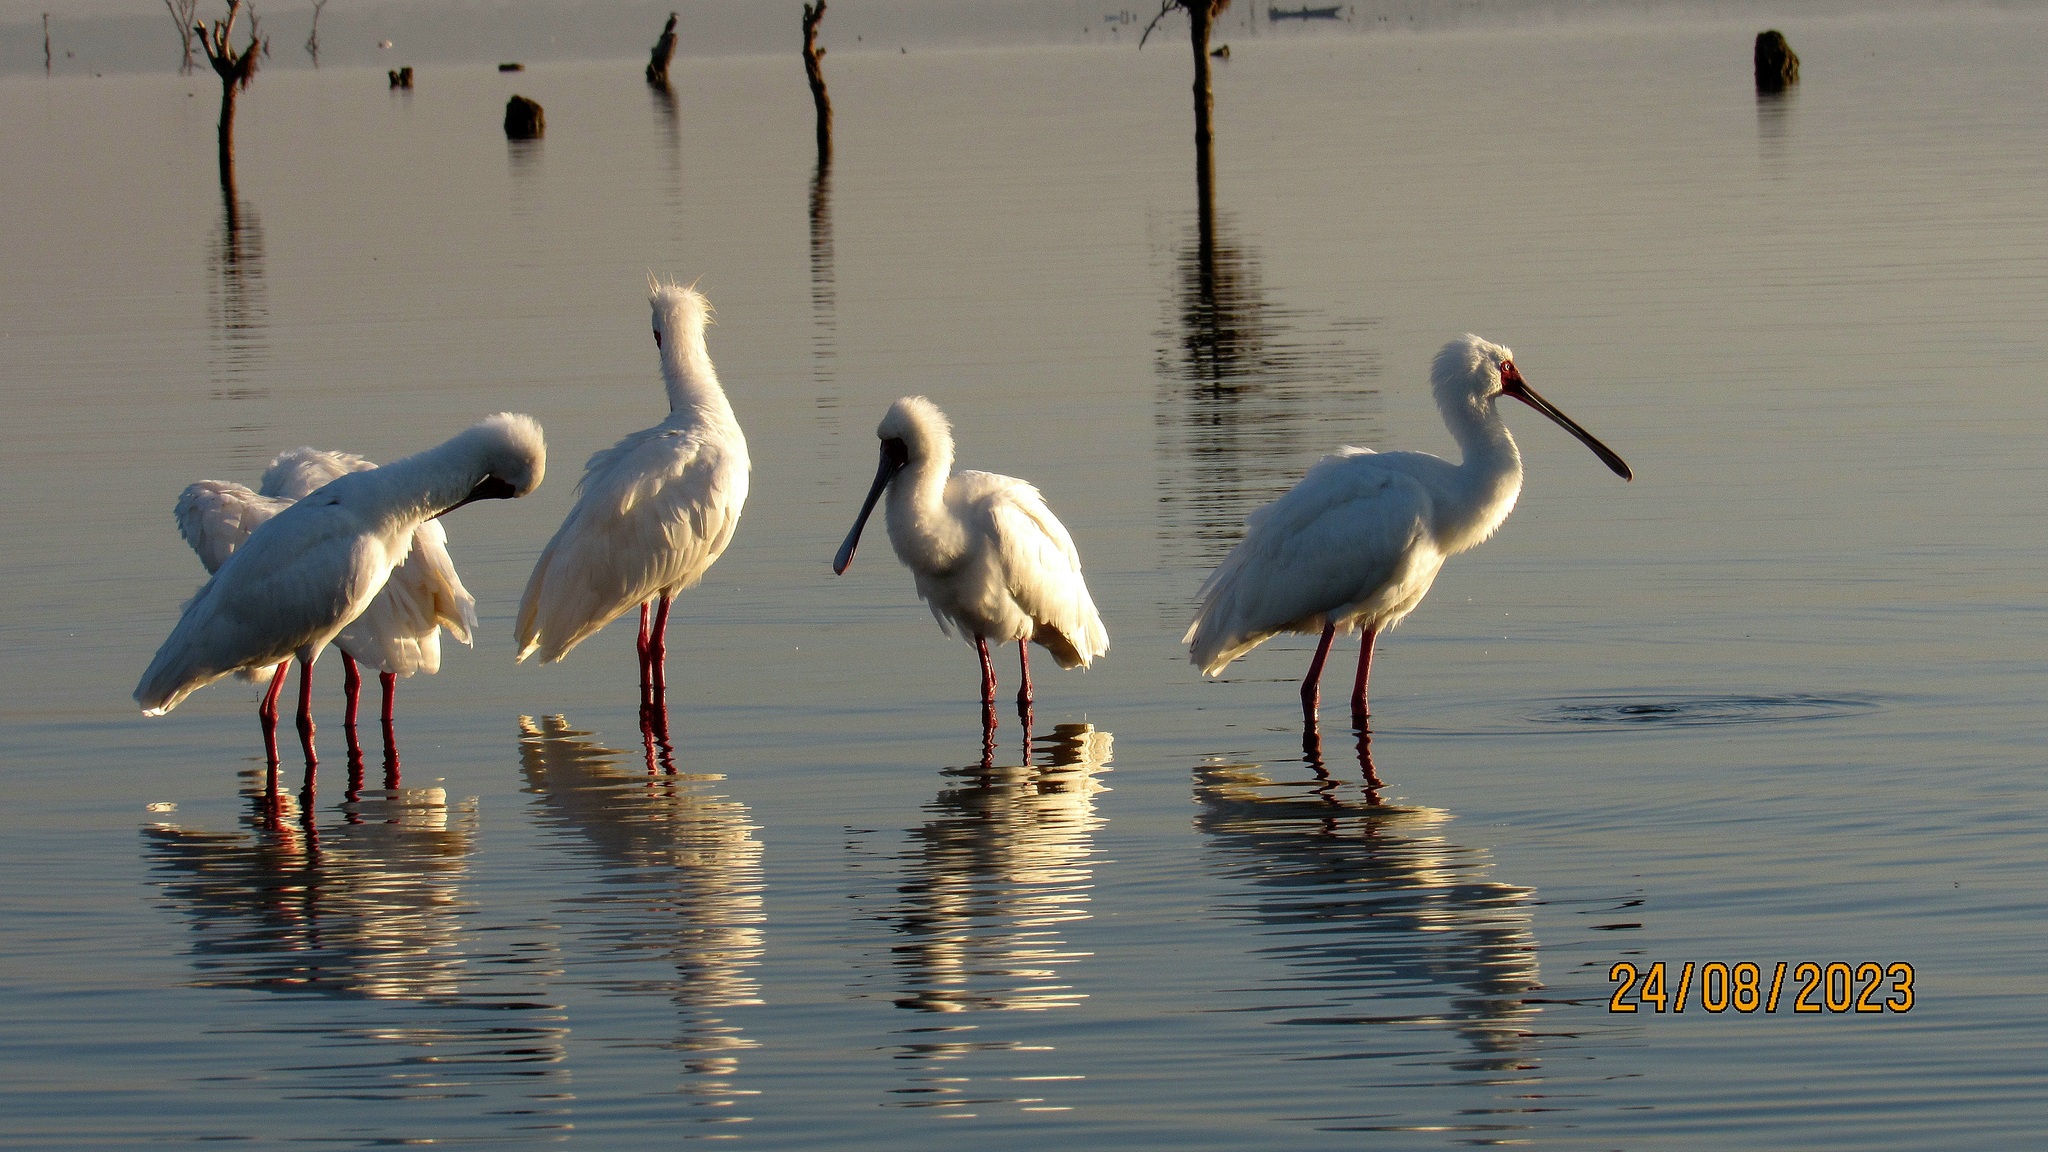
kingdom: Animalia
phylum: Chordata
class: Aves
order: Pelecaniformes
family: Threskiornithidae
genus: Platalea
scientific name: Platalea alba
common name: African spoonbill
